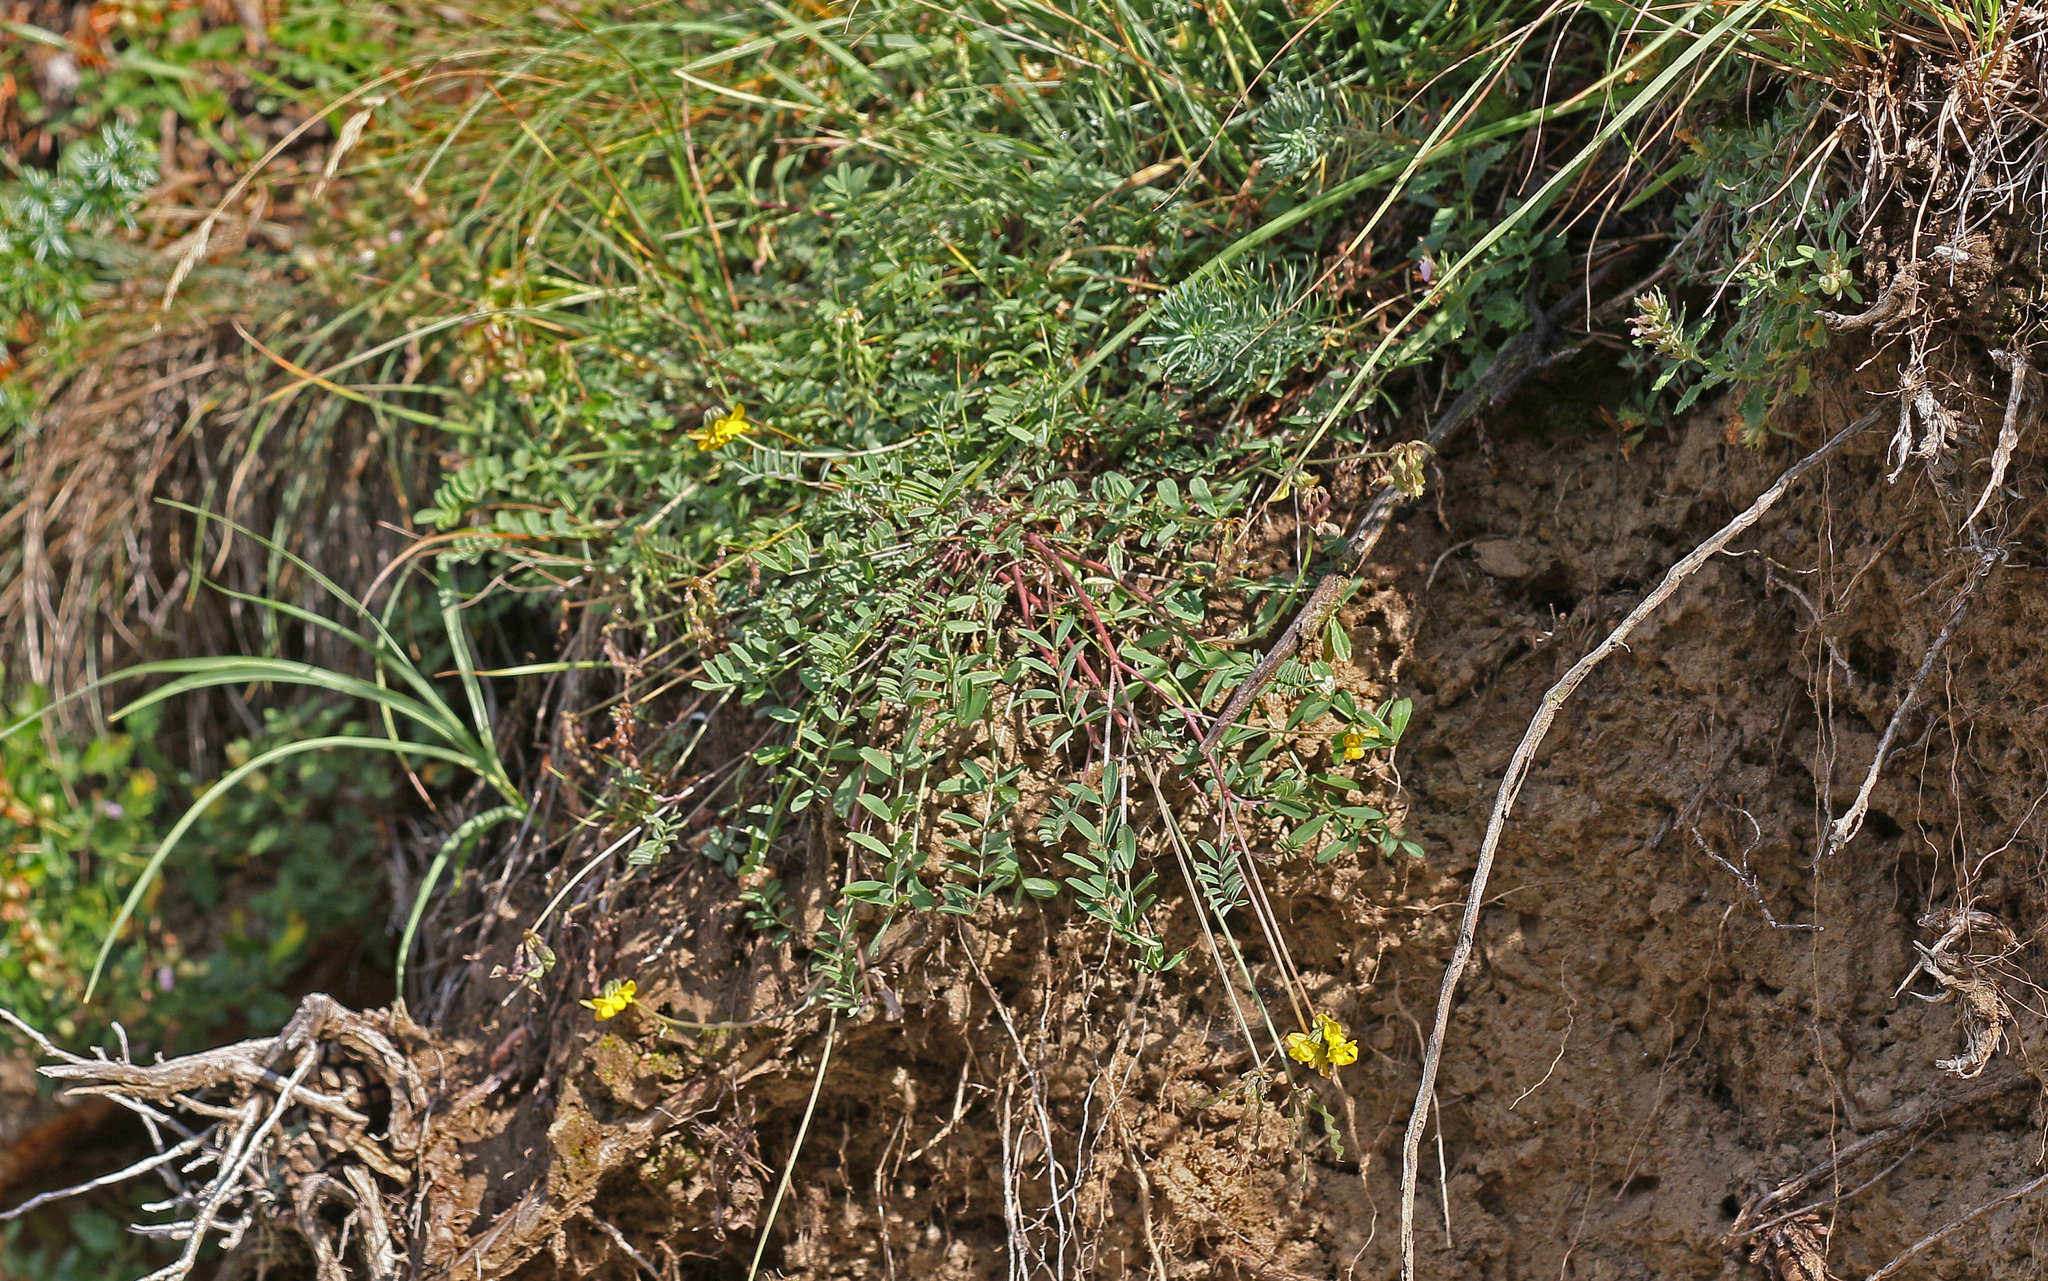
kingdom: Plantae
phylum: Tracheophyta
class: Magnoliopsida
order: Fabales
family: Fabaceae
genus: Hippocrepis
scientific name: Hippocrepis comosa
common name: Horseshoe vetch
